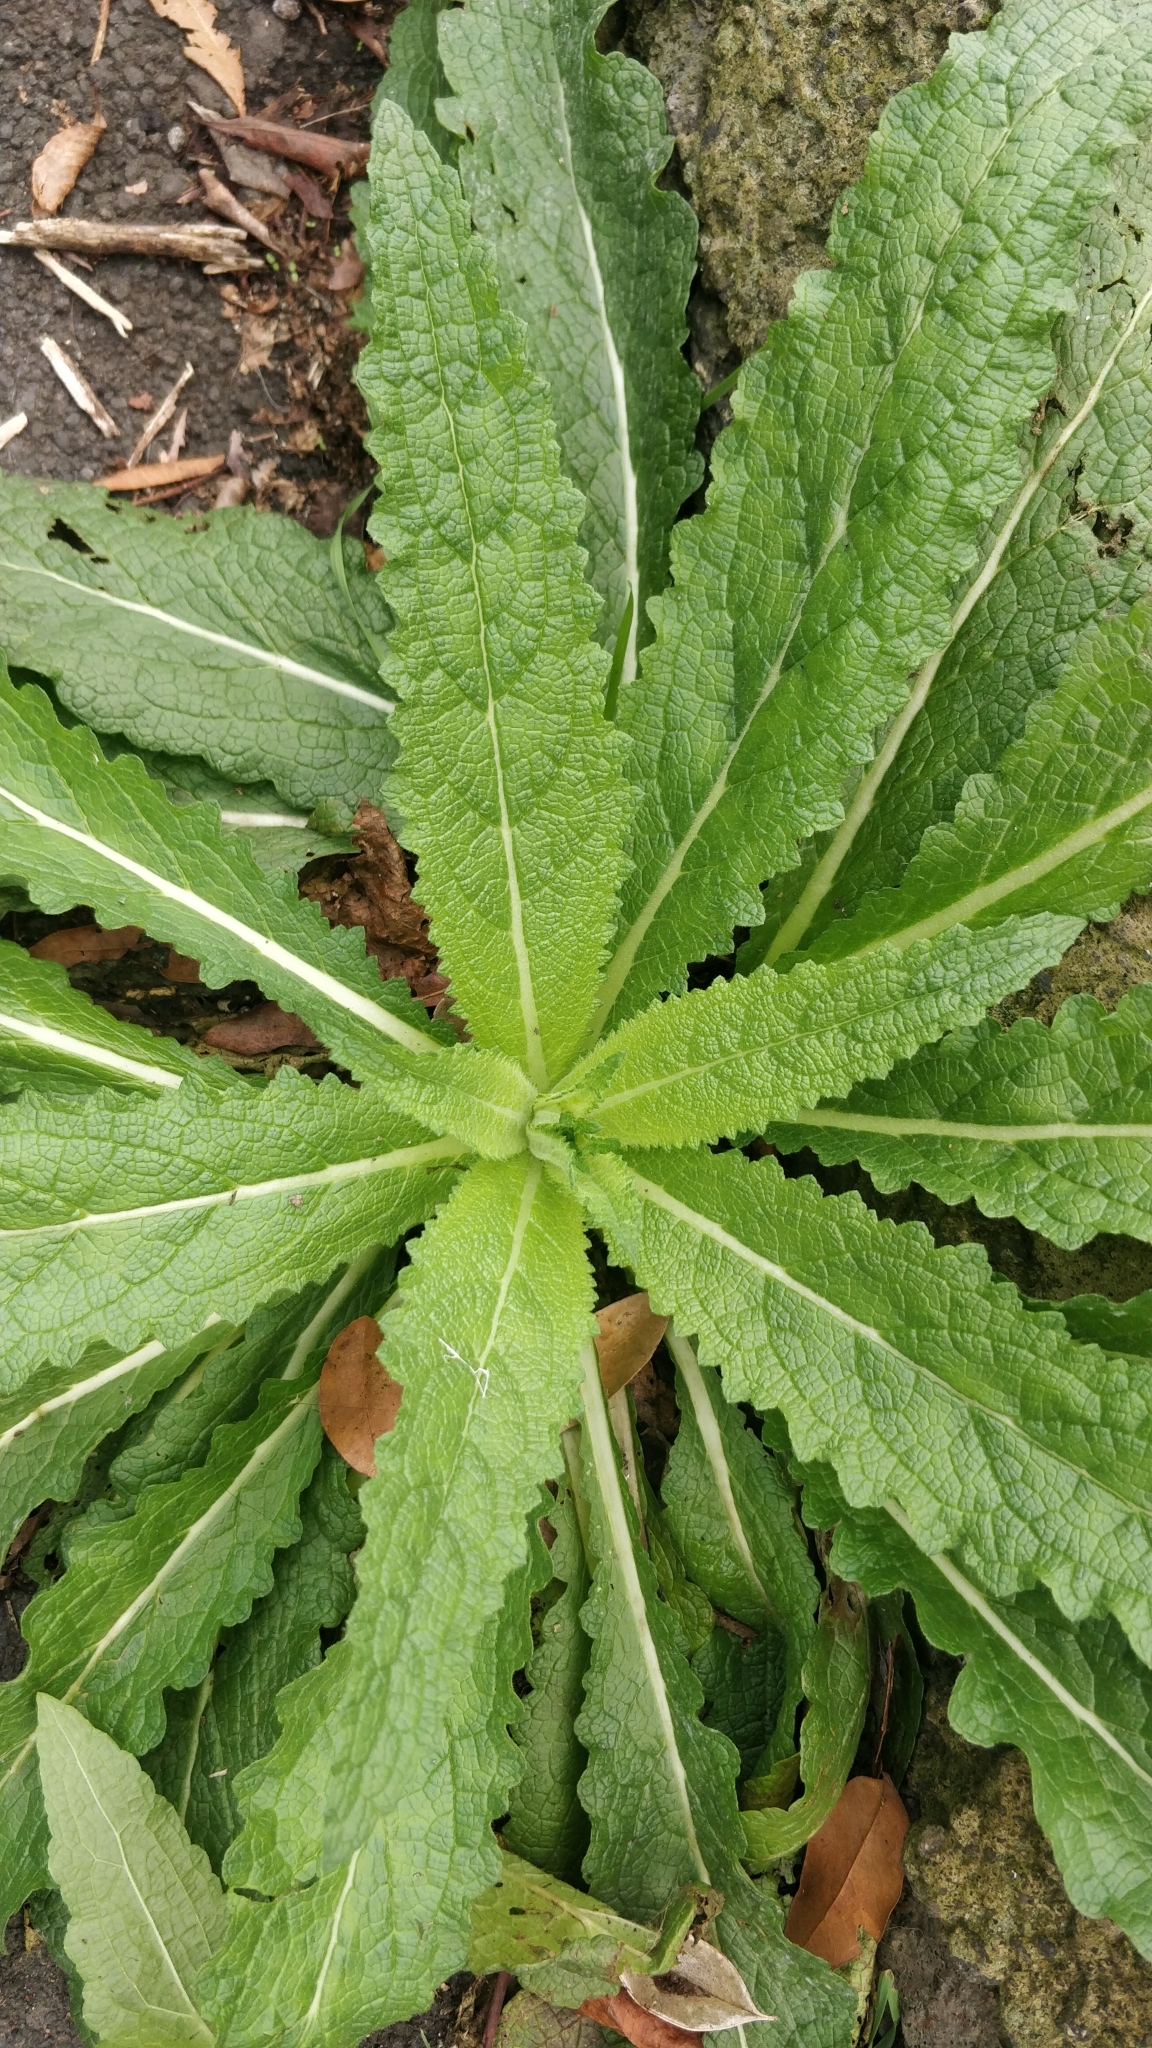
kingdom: Plantae
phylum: Tracheophyta
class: Magnoliopsida
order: Lamiales
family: Scrophulariaceae
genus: Verbascum
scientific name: Verbascum virgatum
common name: Twiggy mullein
